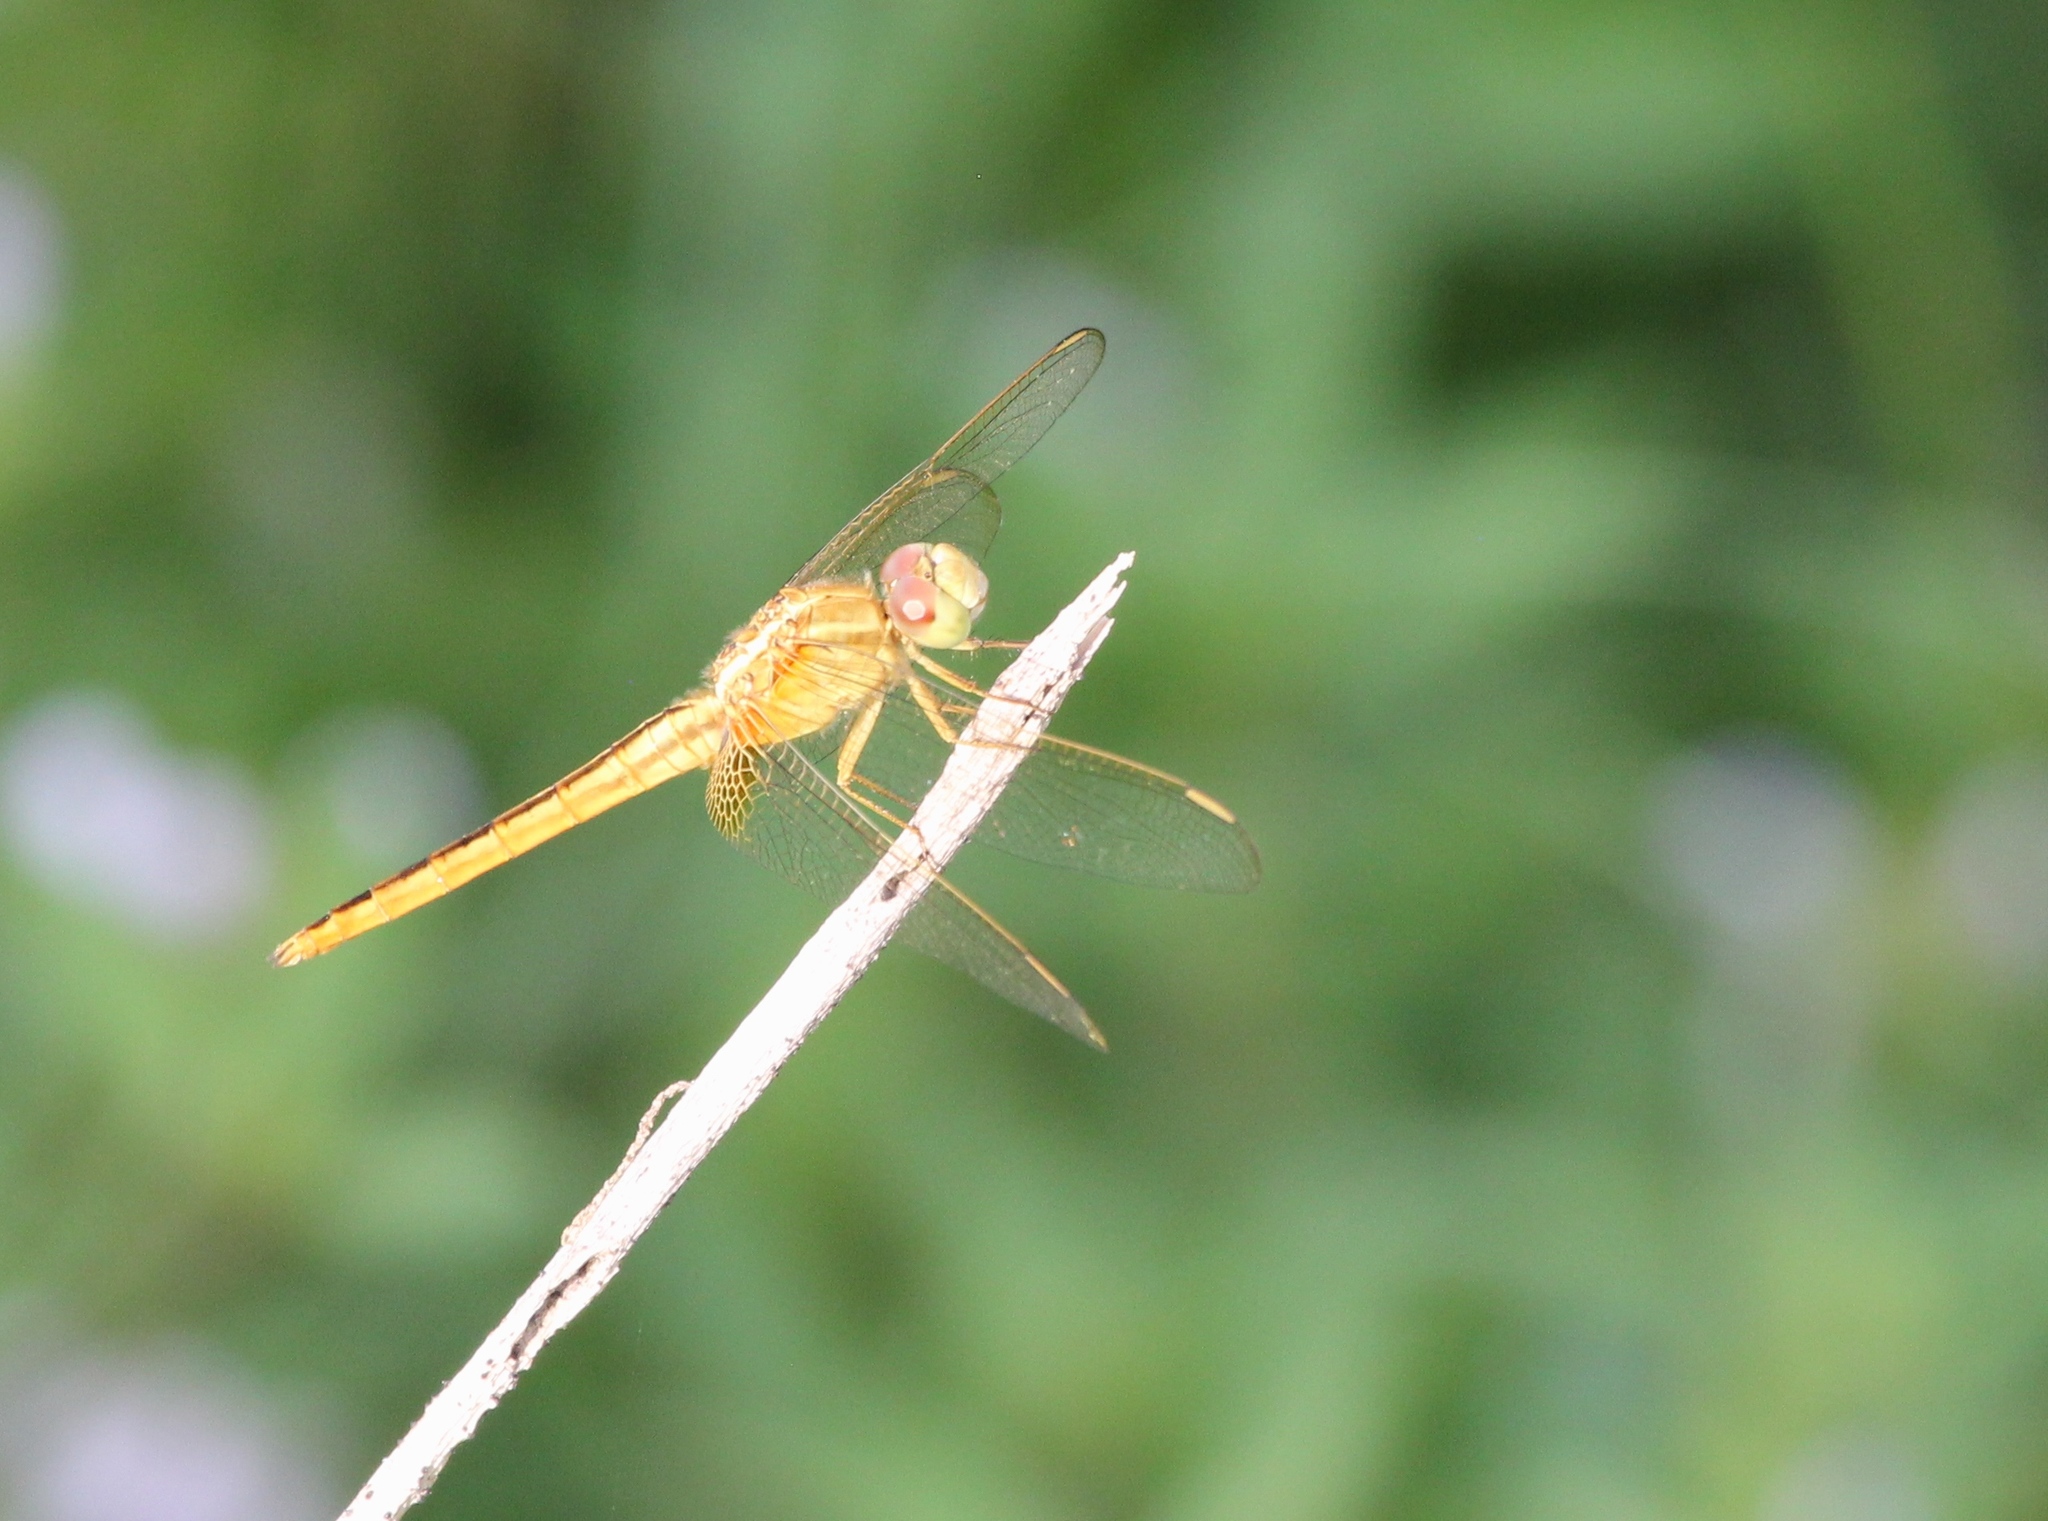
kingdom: Animalia
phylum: Arthropoda
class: Insecta
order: Odonata
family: Libellulidae
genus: Crocothemis
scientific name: Crocothemis servilia
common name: Scarlet skimmer
